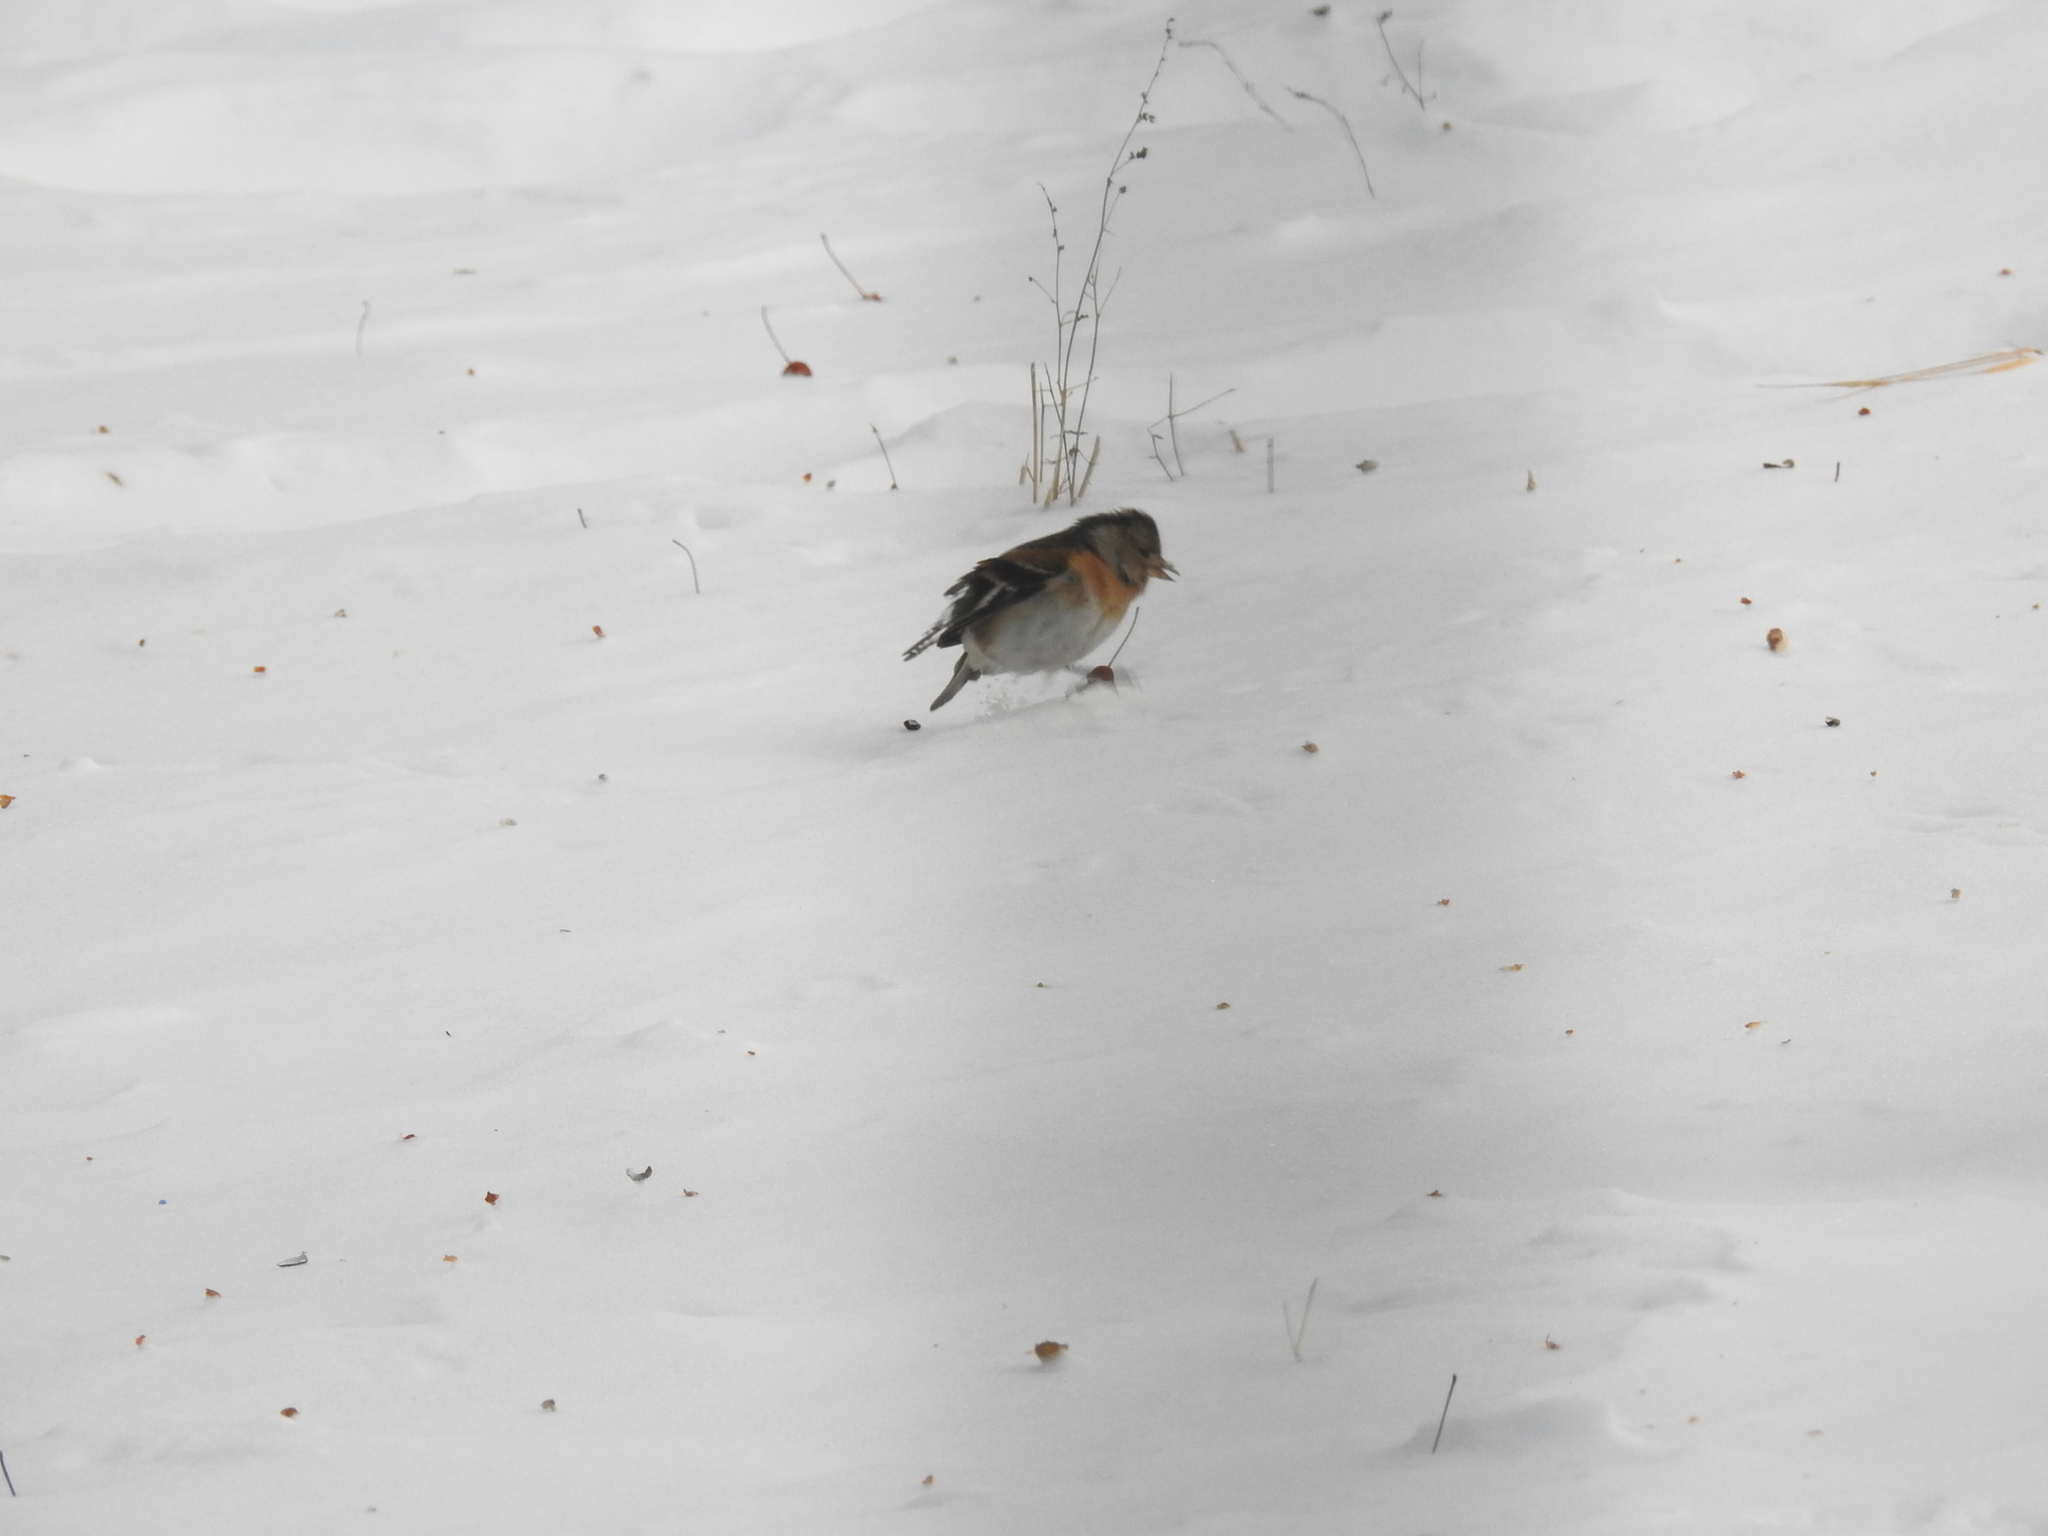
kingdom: Animalia
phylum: Chordata
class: Aves
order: Passeriformes
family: Fringillidae
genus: Fringilla
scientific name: Fringilla montifringilla
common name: Brambling
